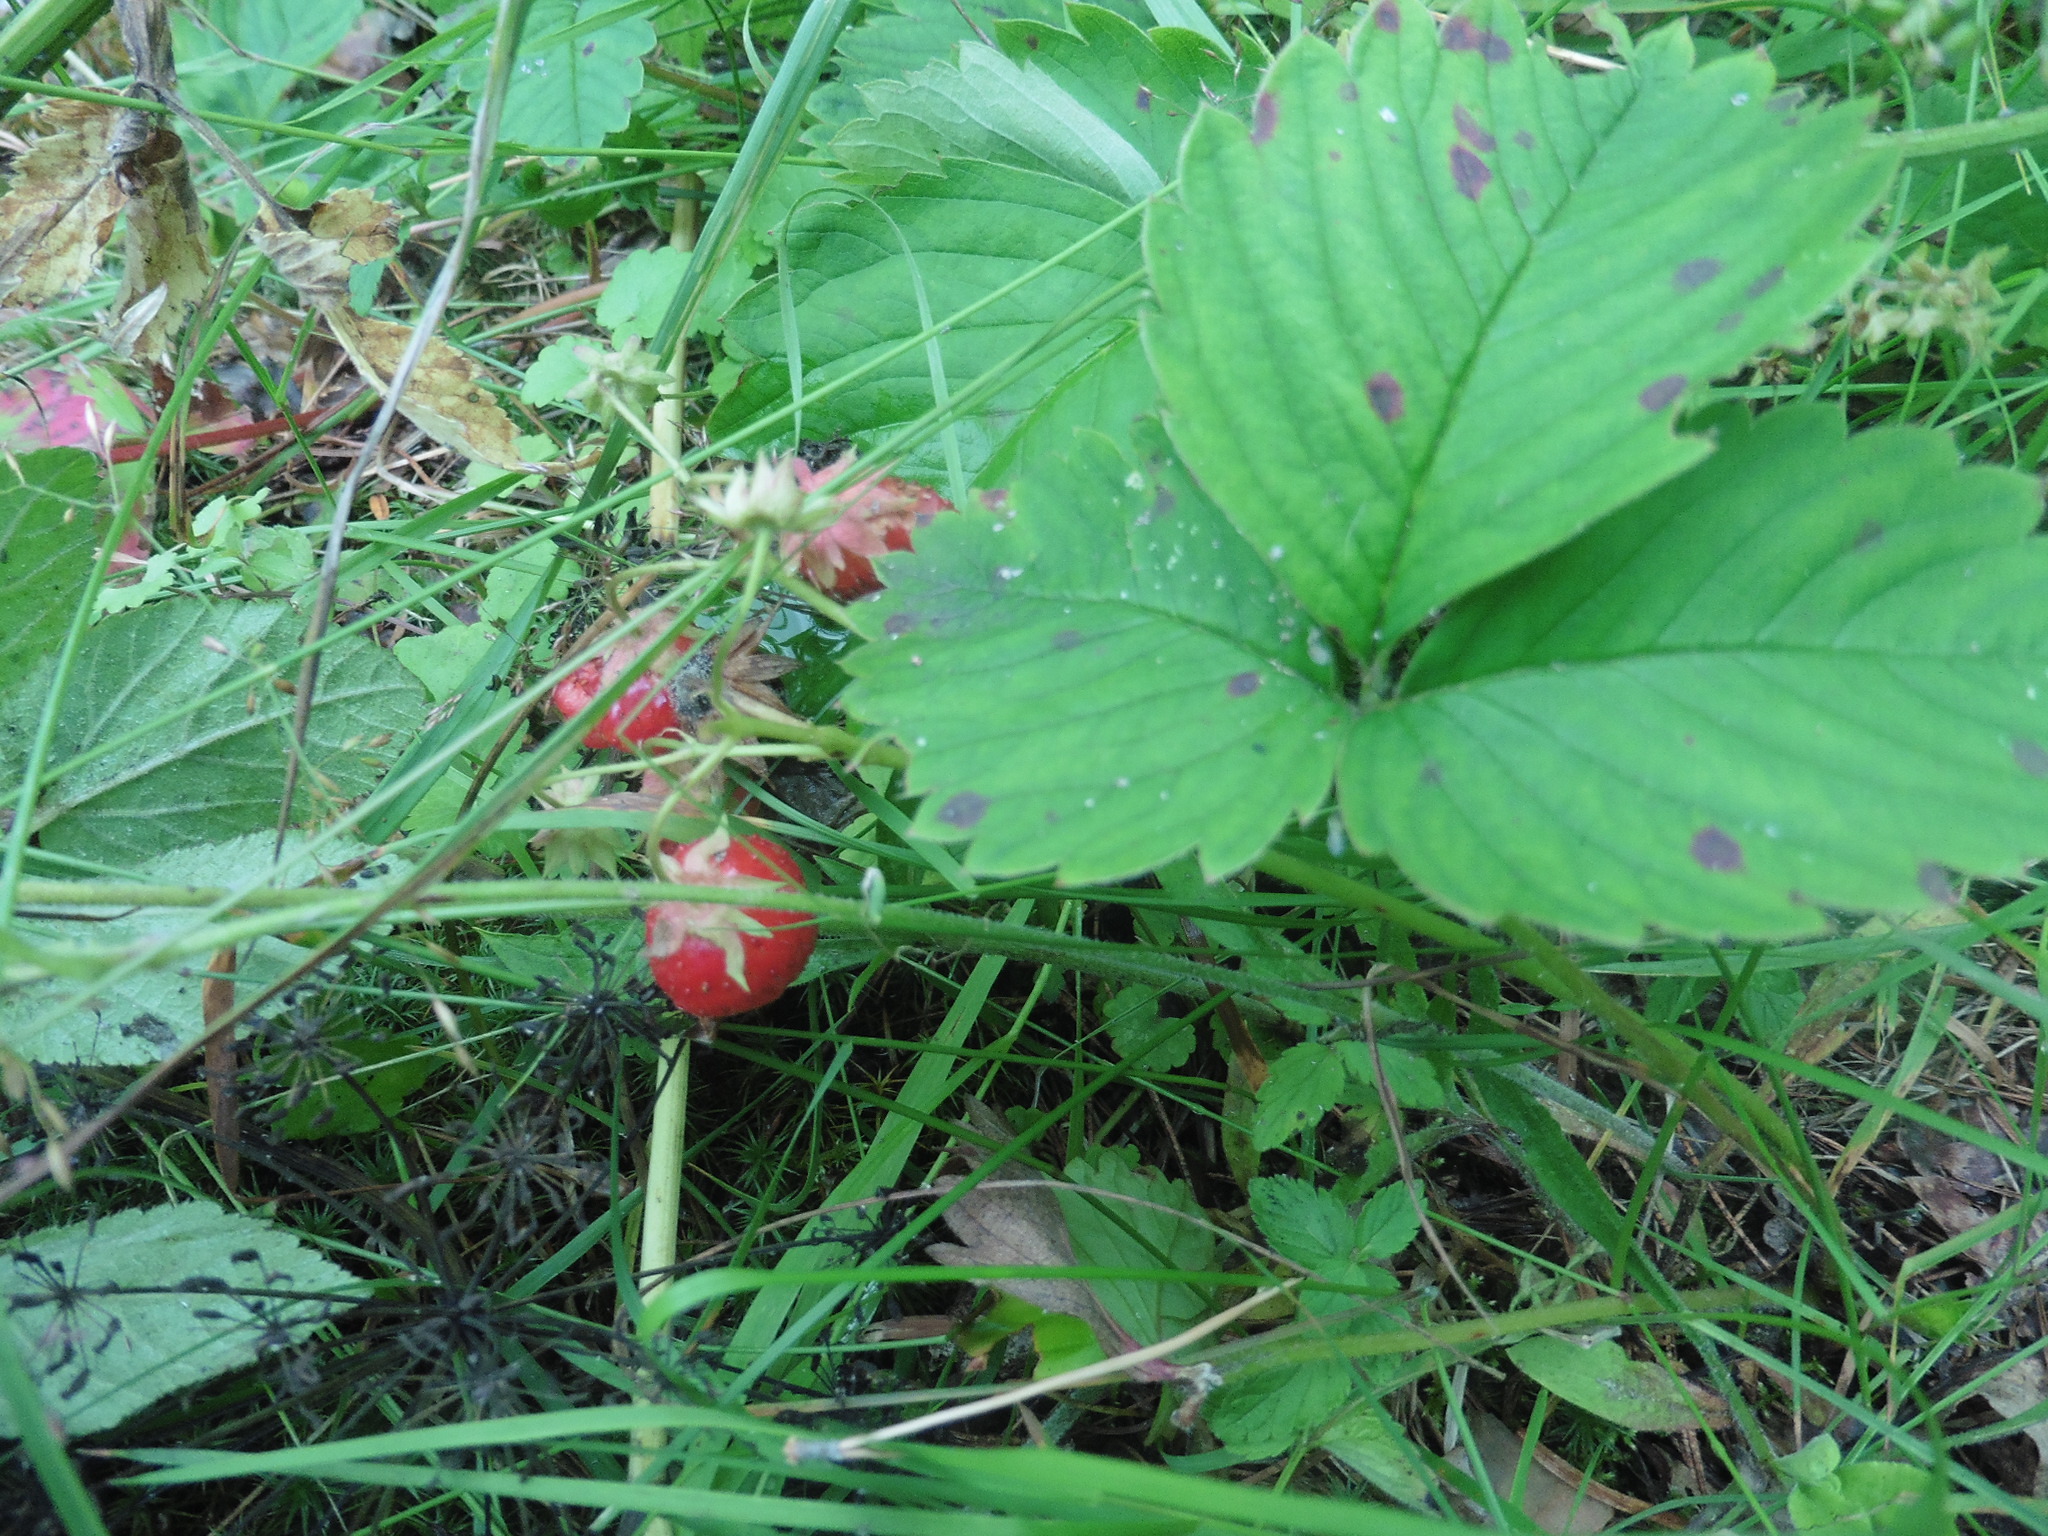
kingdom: Plantae
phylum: Tracheophyta
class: Magnoliopsida
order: Rosales
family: Rosaceae
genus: Fragaria
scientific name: Fragaria ananassa
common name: Garden strawberry
